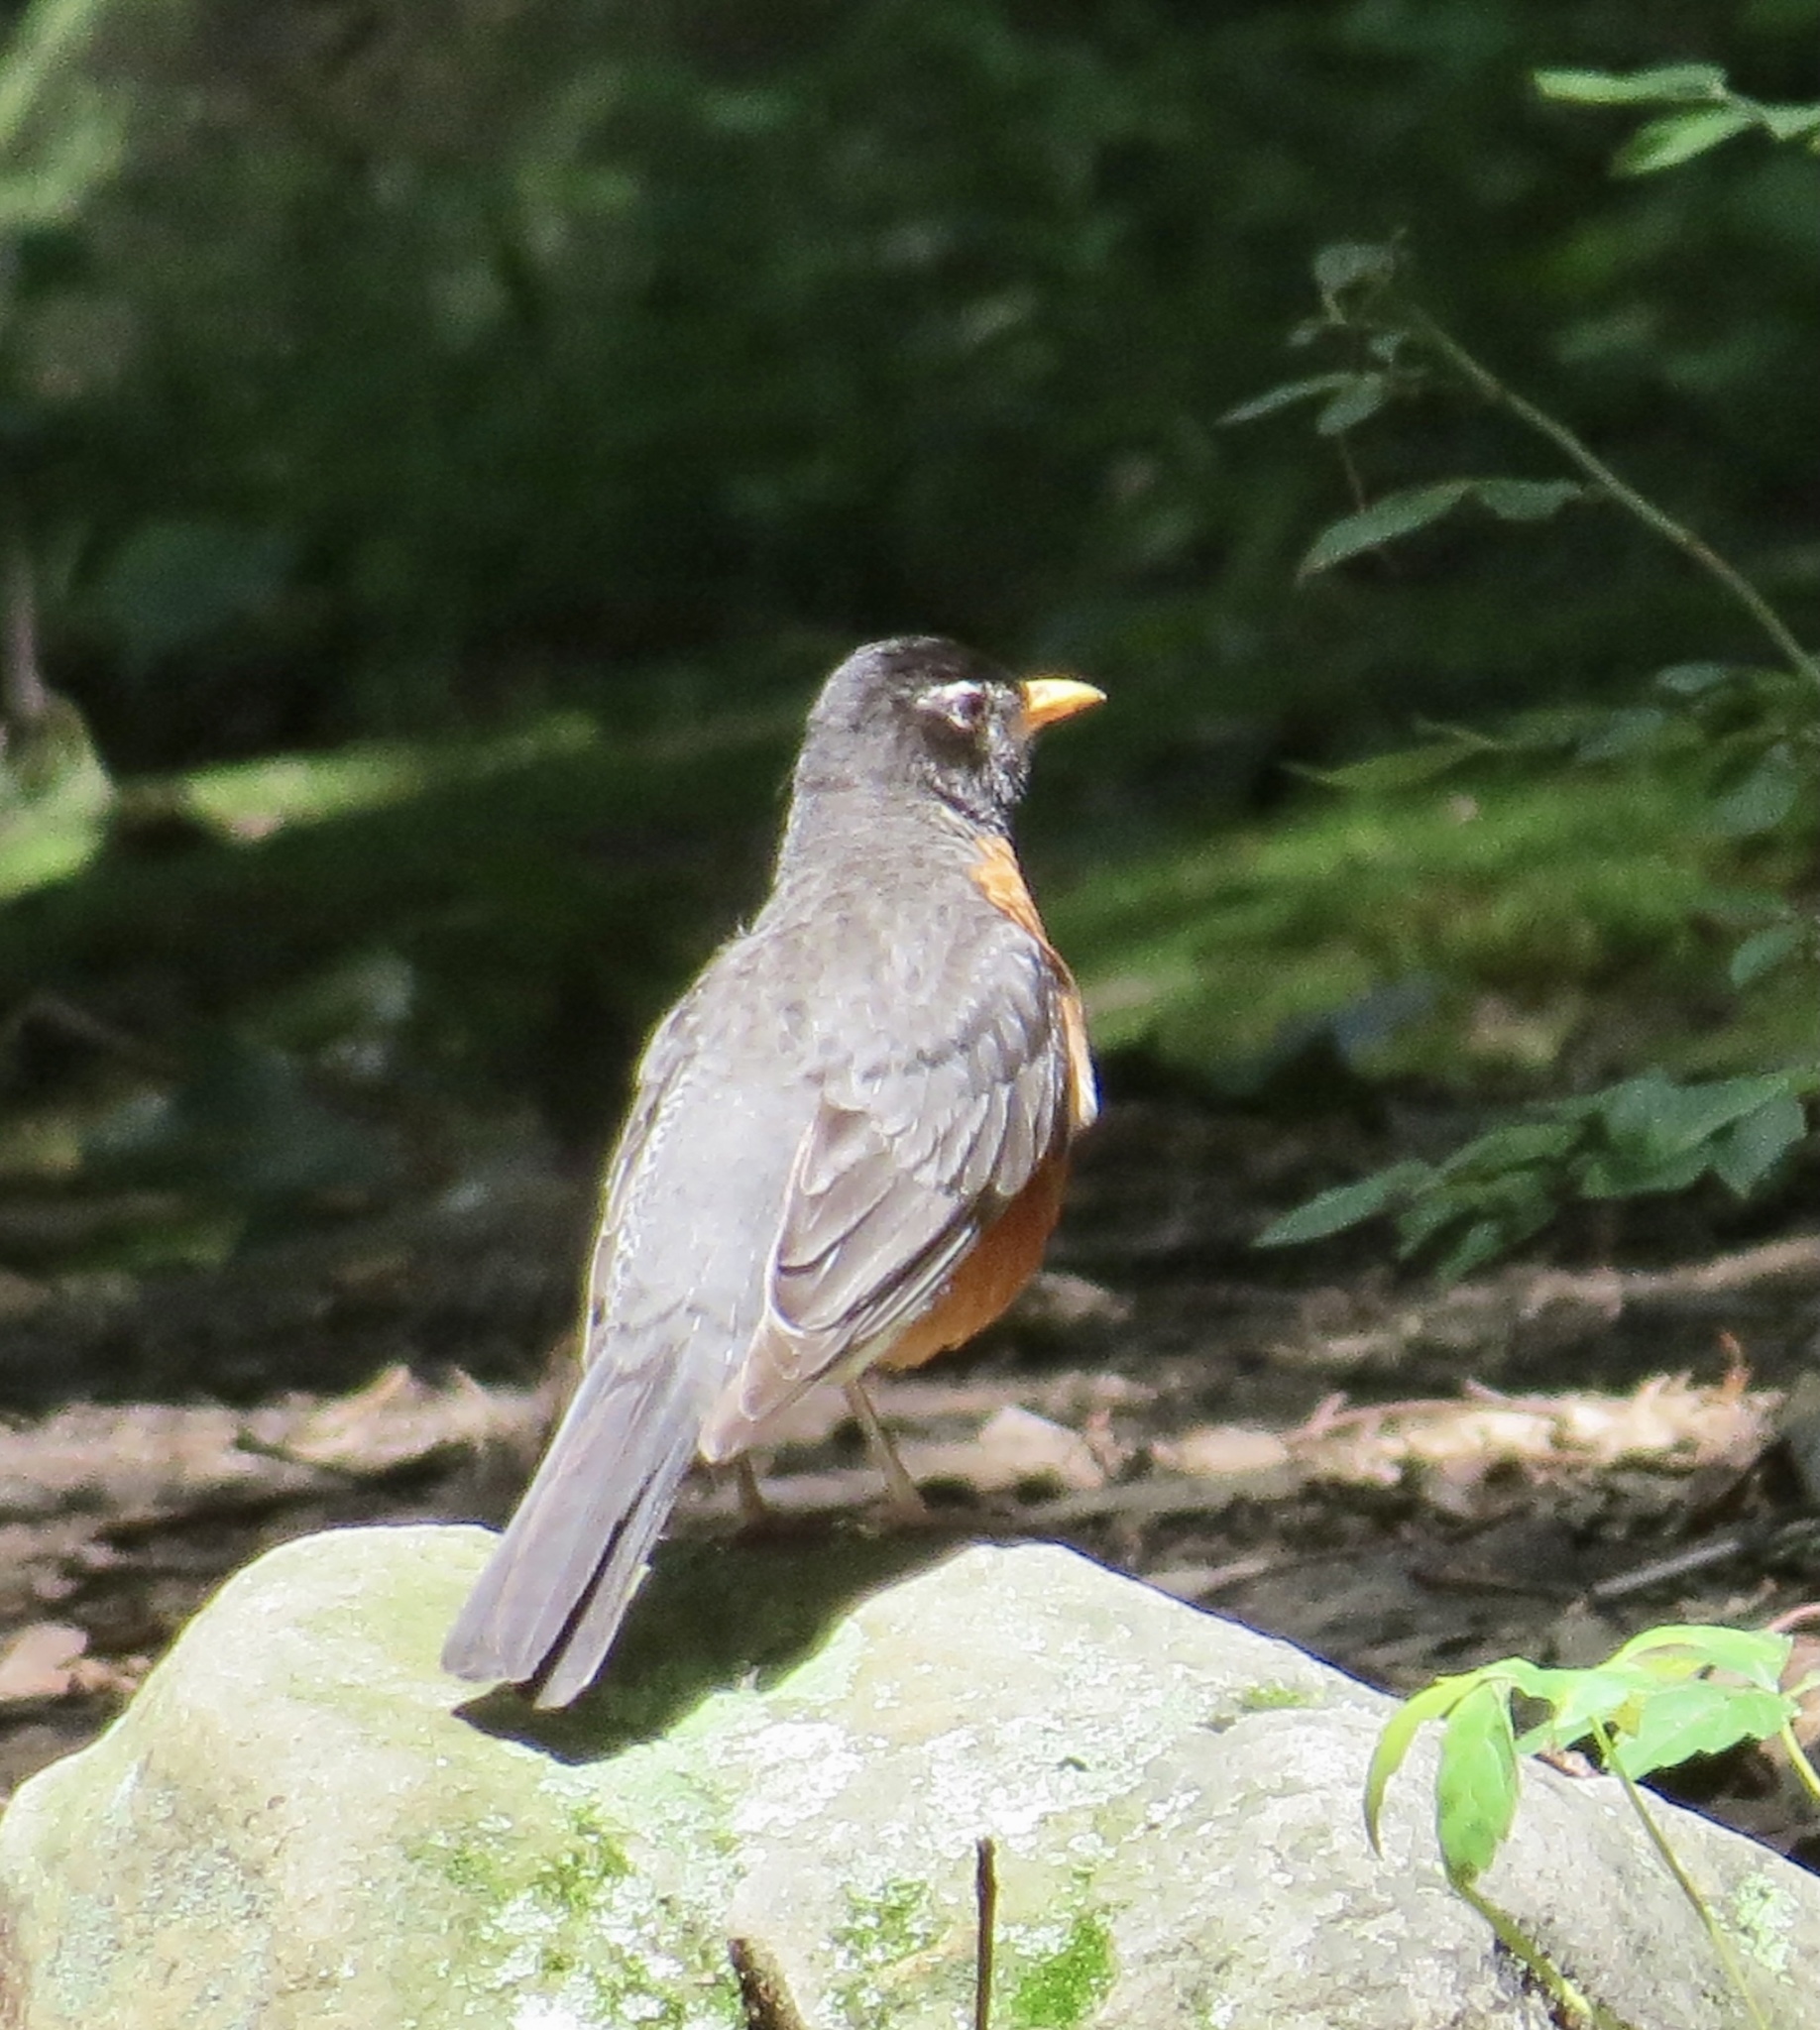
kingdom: Animalia
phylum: Chordata
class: Aves
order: Passeriformes
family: Turdidae
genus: Turdus
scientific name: Turdus migratorius
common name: American robin
